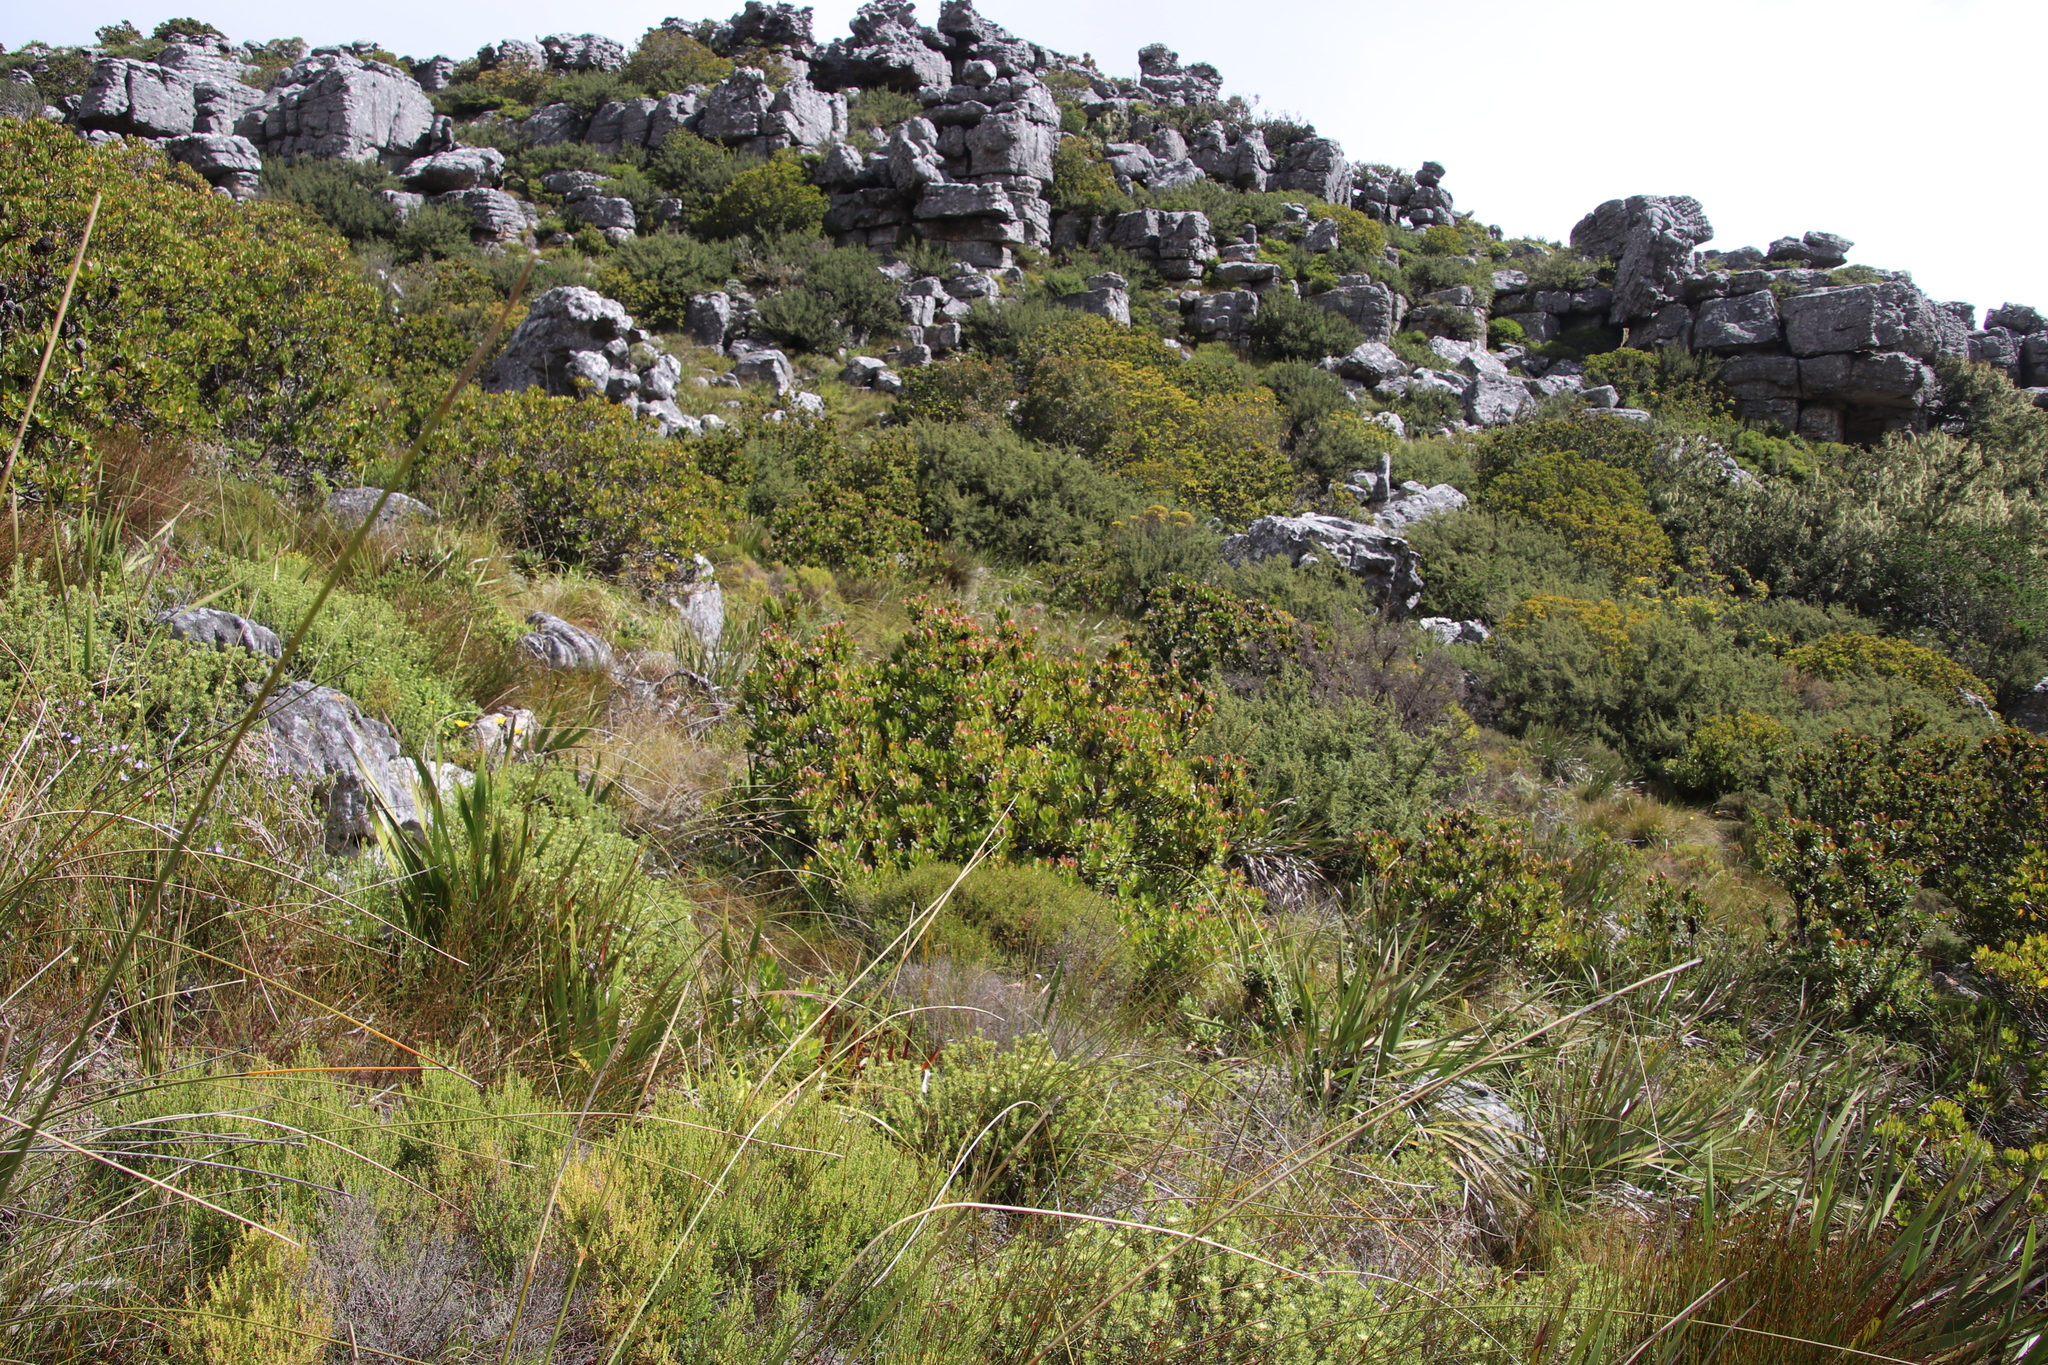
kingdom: Plantae
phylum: Tracheophyta
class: Magnoliopsida
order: Proteales
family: Proteaceae
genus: Leucadendron
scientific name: Leucadendron strobilinum
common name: Mountain rose
